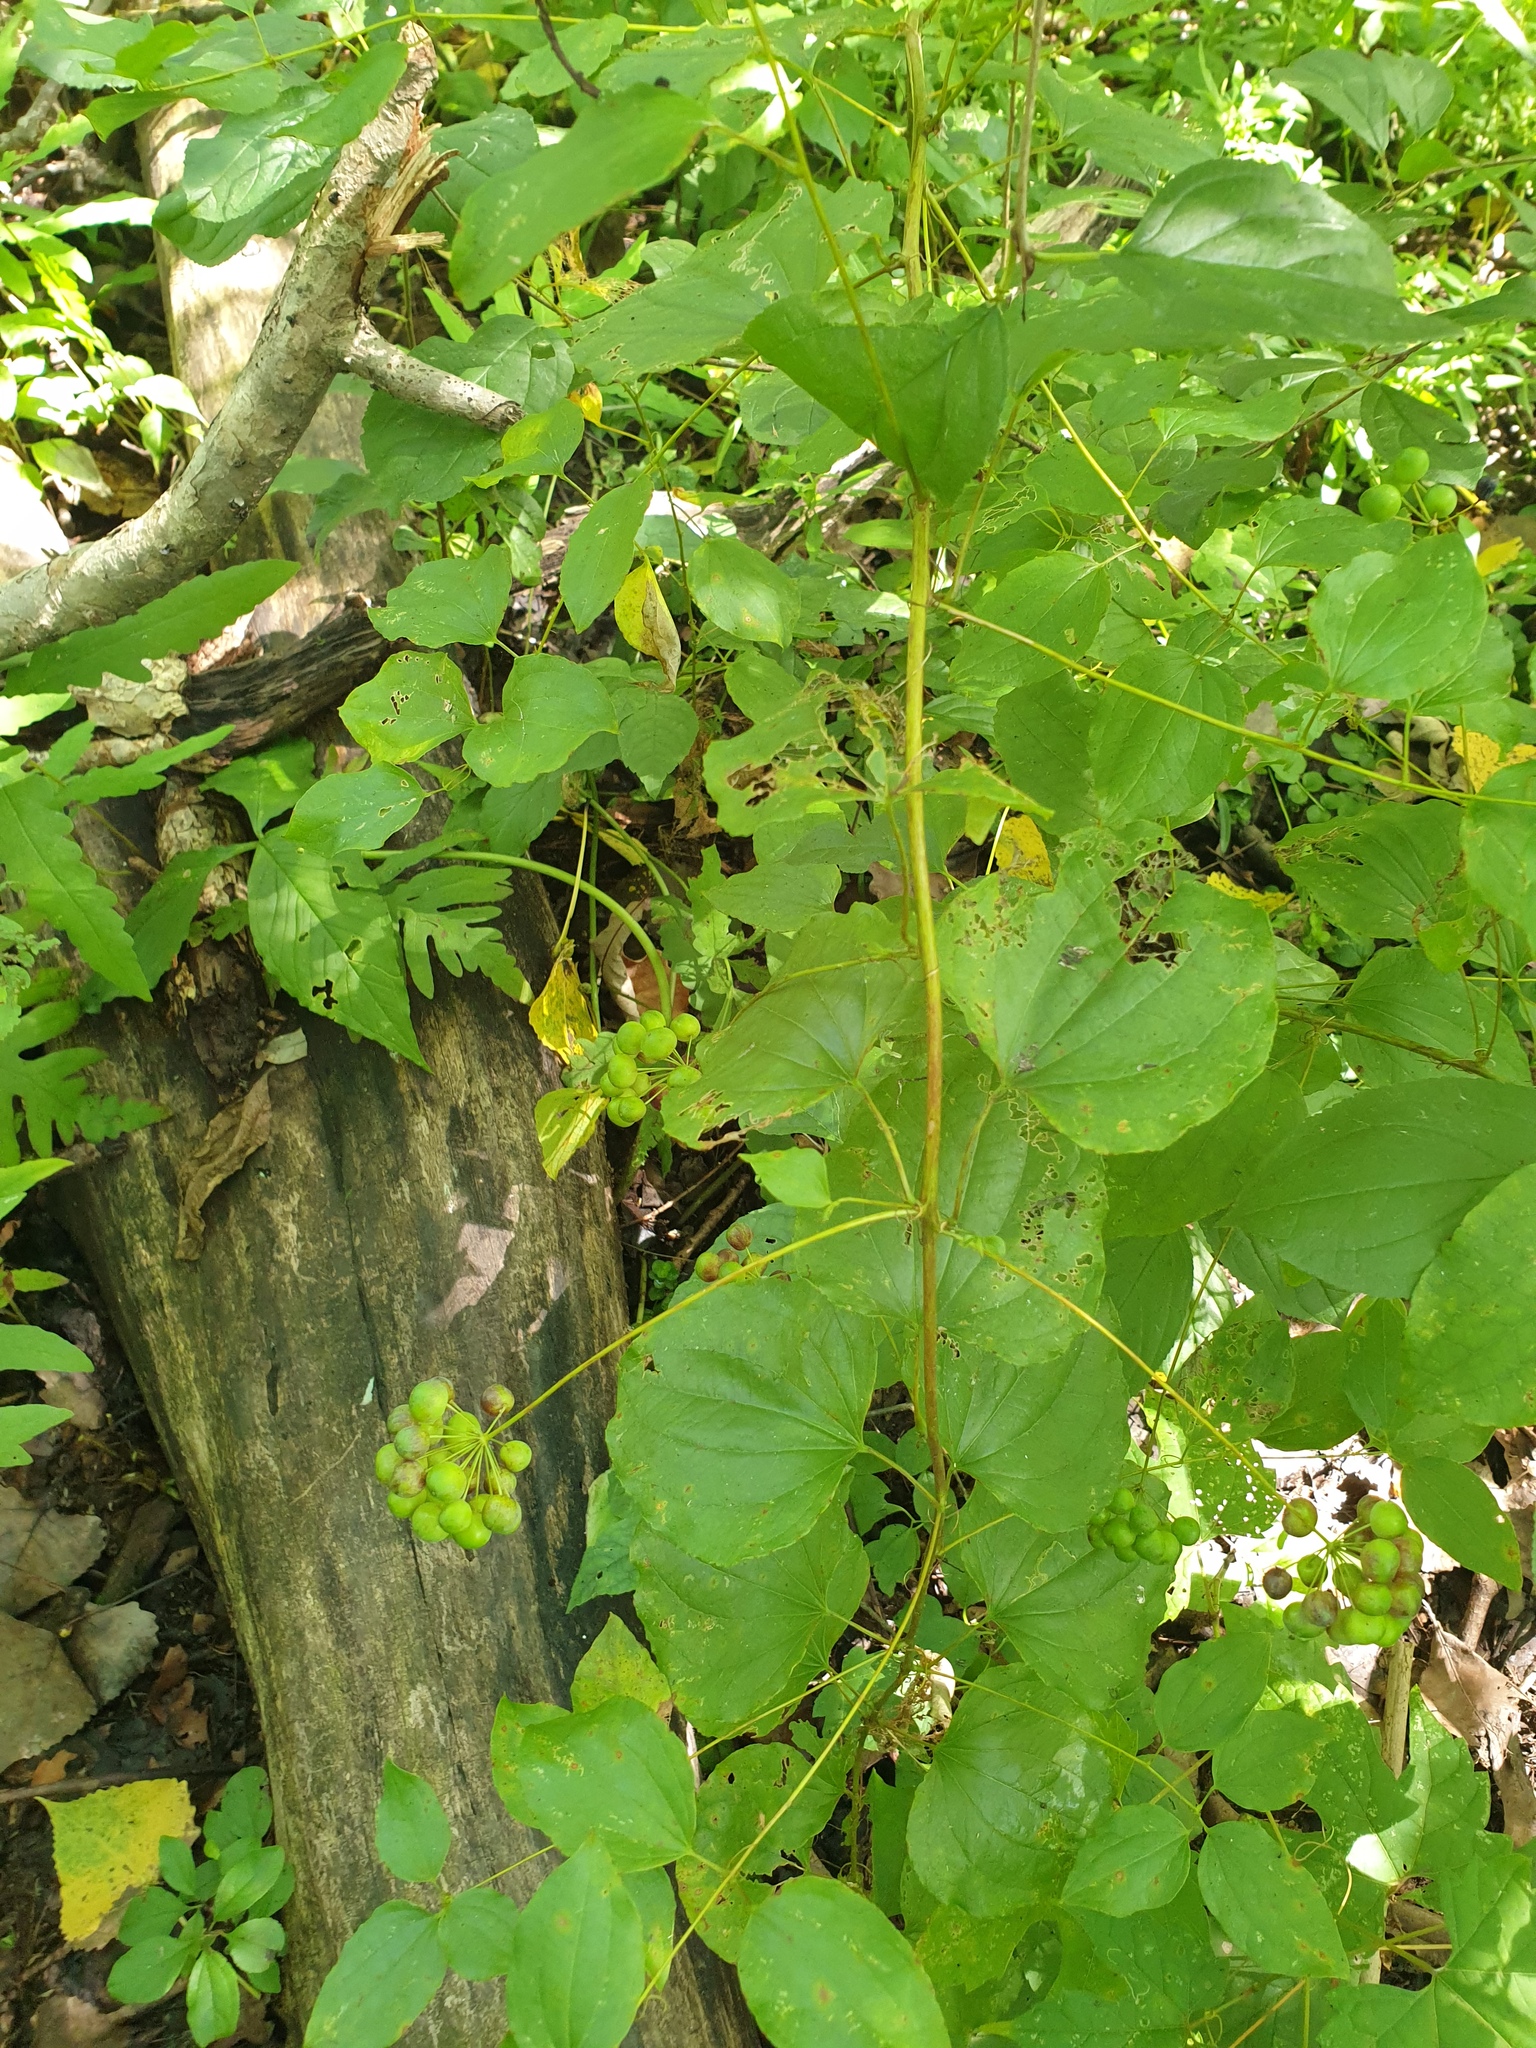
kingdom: Plantae
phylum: Tracheophyta
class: Liliopsida
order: Liliales
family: Smilacaceae
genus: Smilax
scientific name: Smilax herbacea
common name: Jacob's-ladder
